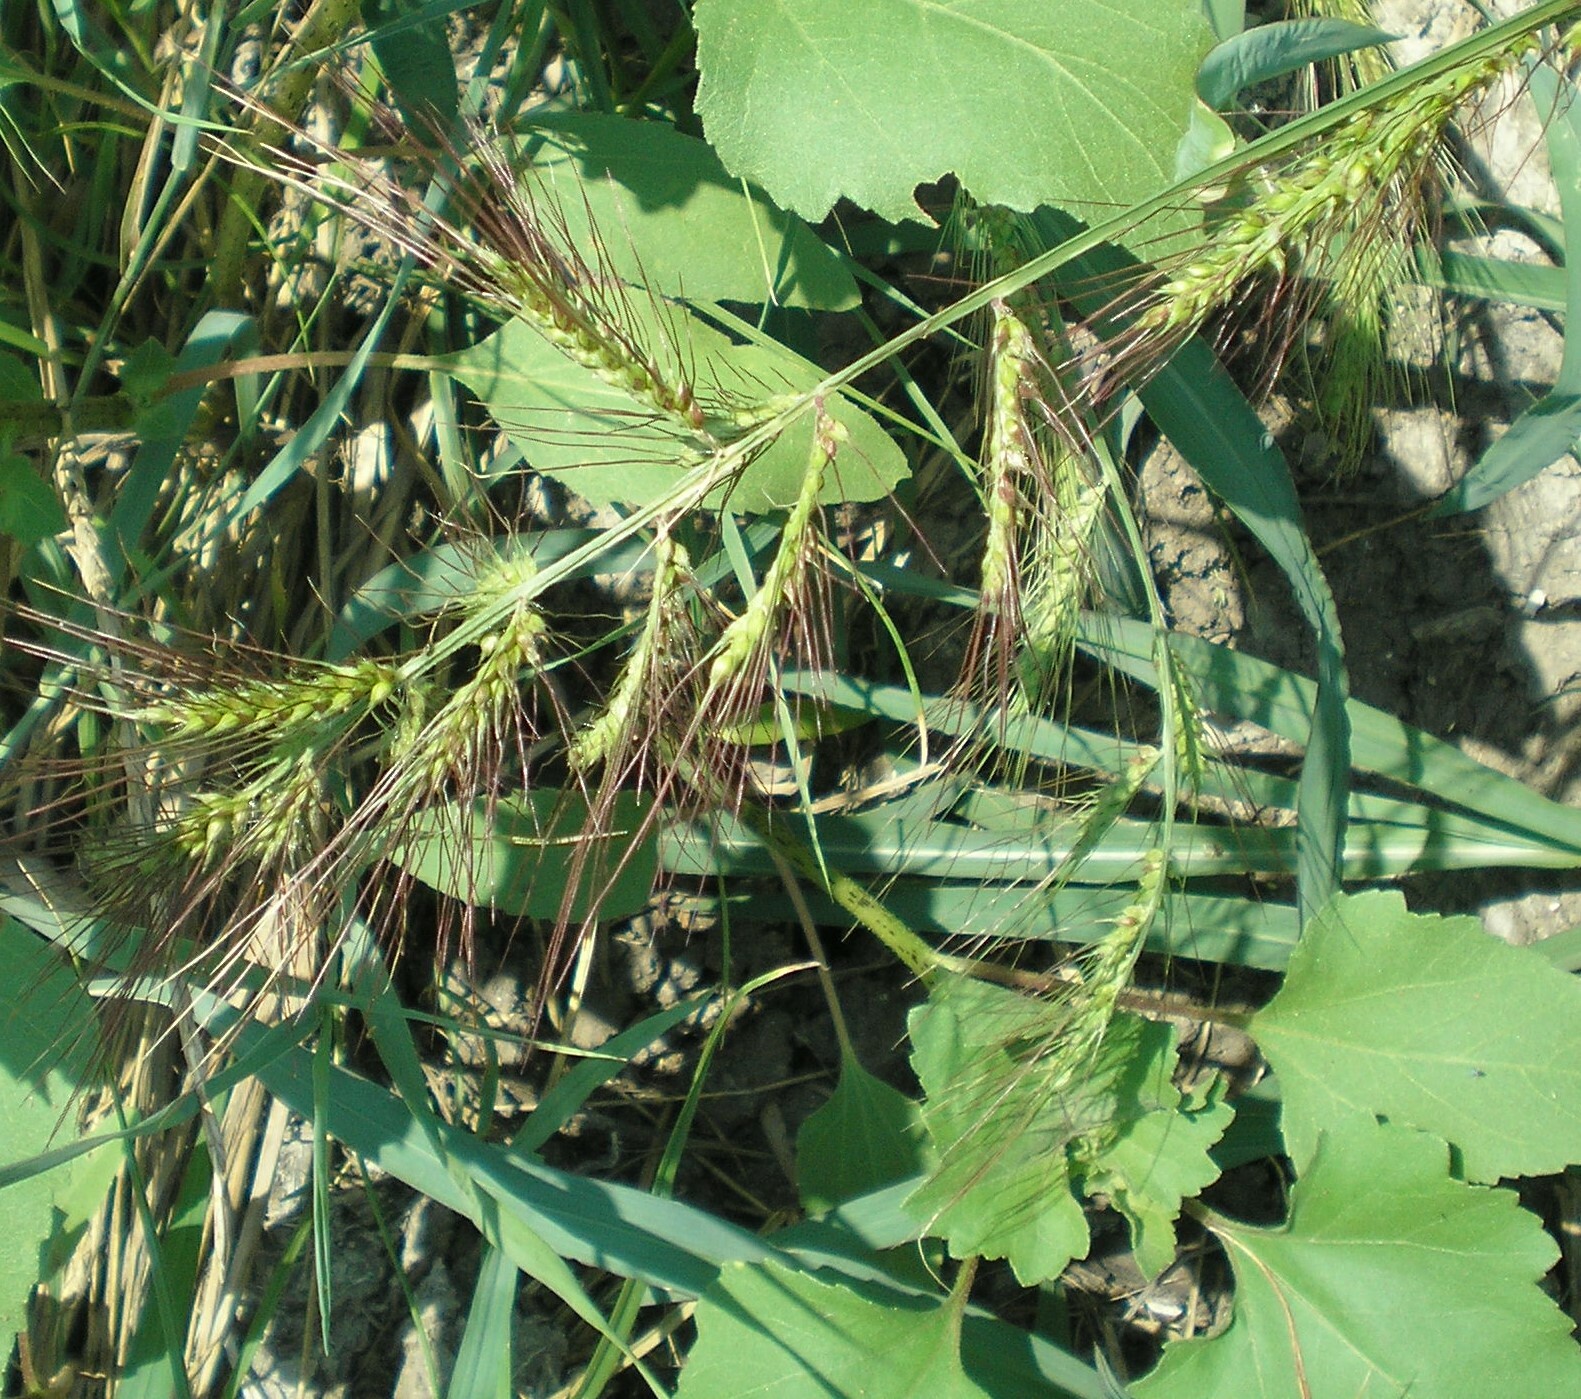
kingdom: Plantae
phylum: Tracheophyta
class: Liliopsida
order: Poales
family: Poaceae
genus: Echinochloa
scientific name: Echinochloa crus-galli
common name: Cockspur
